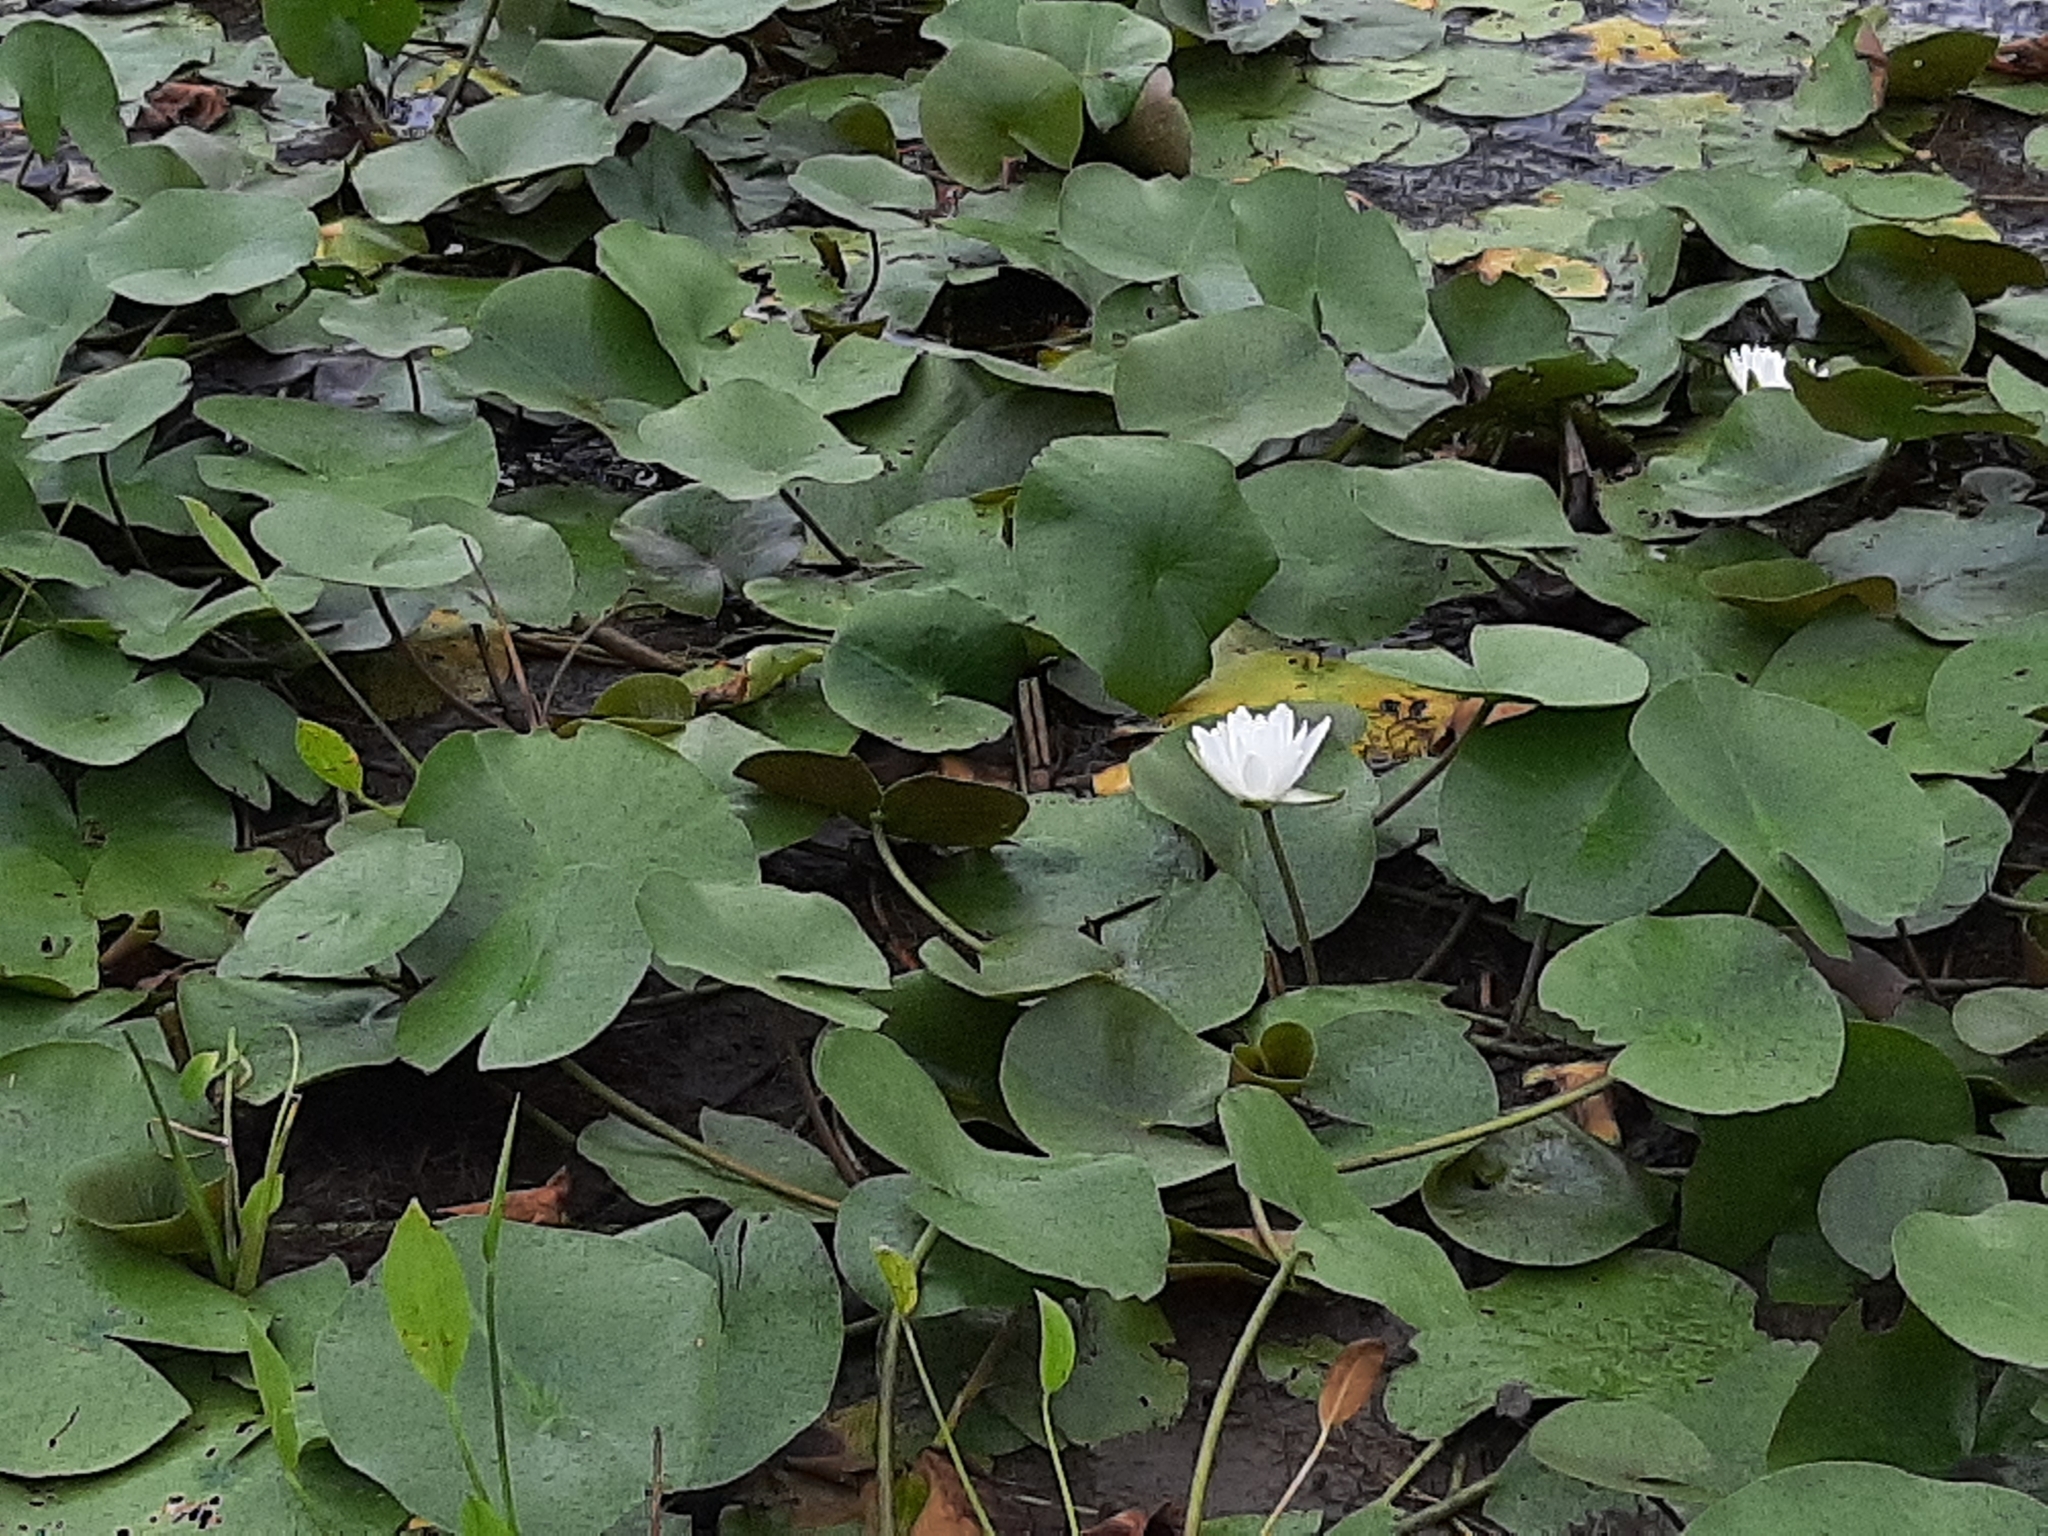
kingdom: Plantae
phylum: Tracheophyta
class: Magnoliopsida
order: Nymphaeales
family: Nymphaeaceae
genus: Nymphaea
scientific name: Nymphaea odorata
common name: Fragrant water-lily
